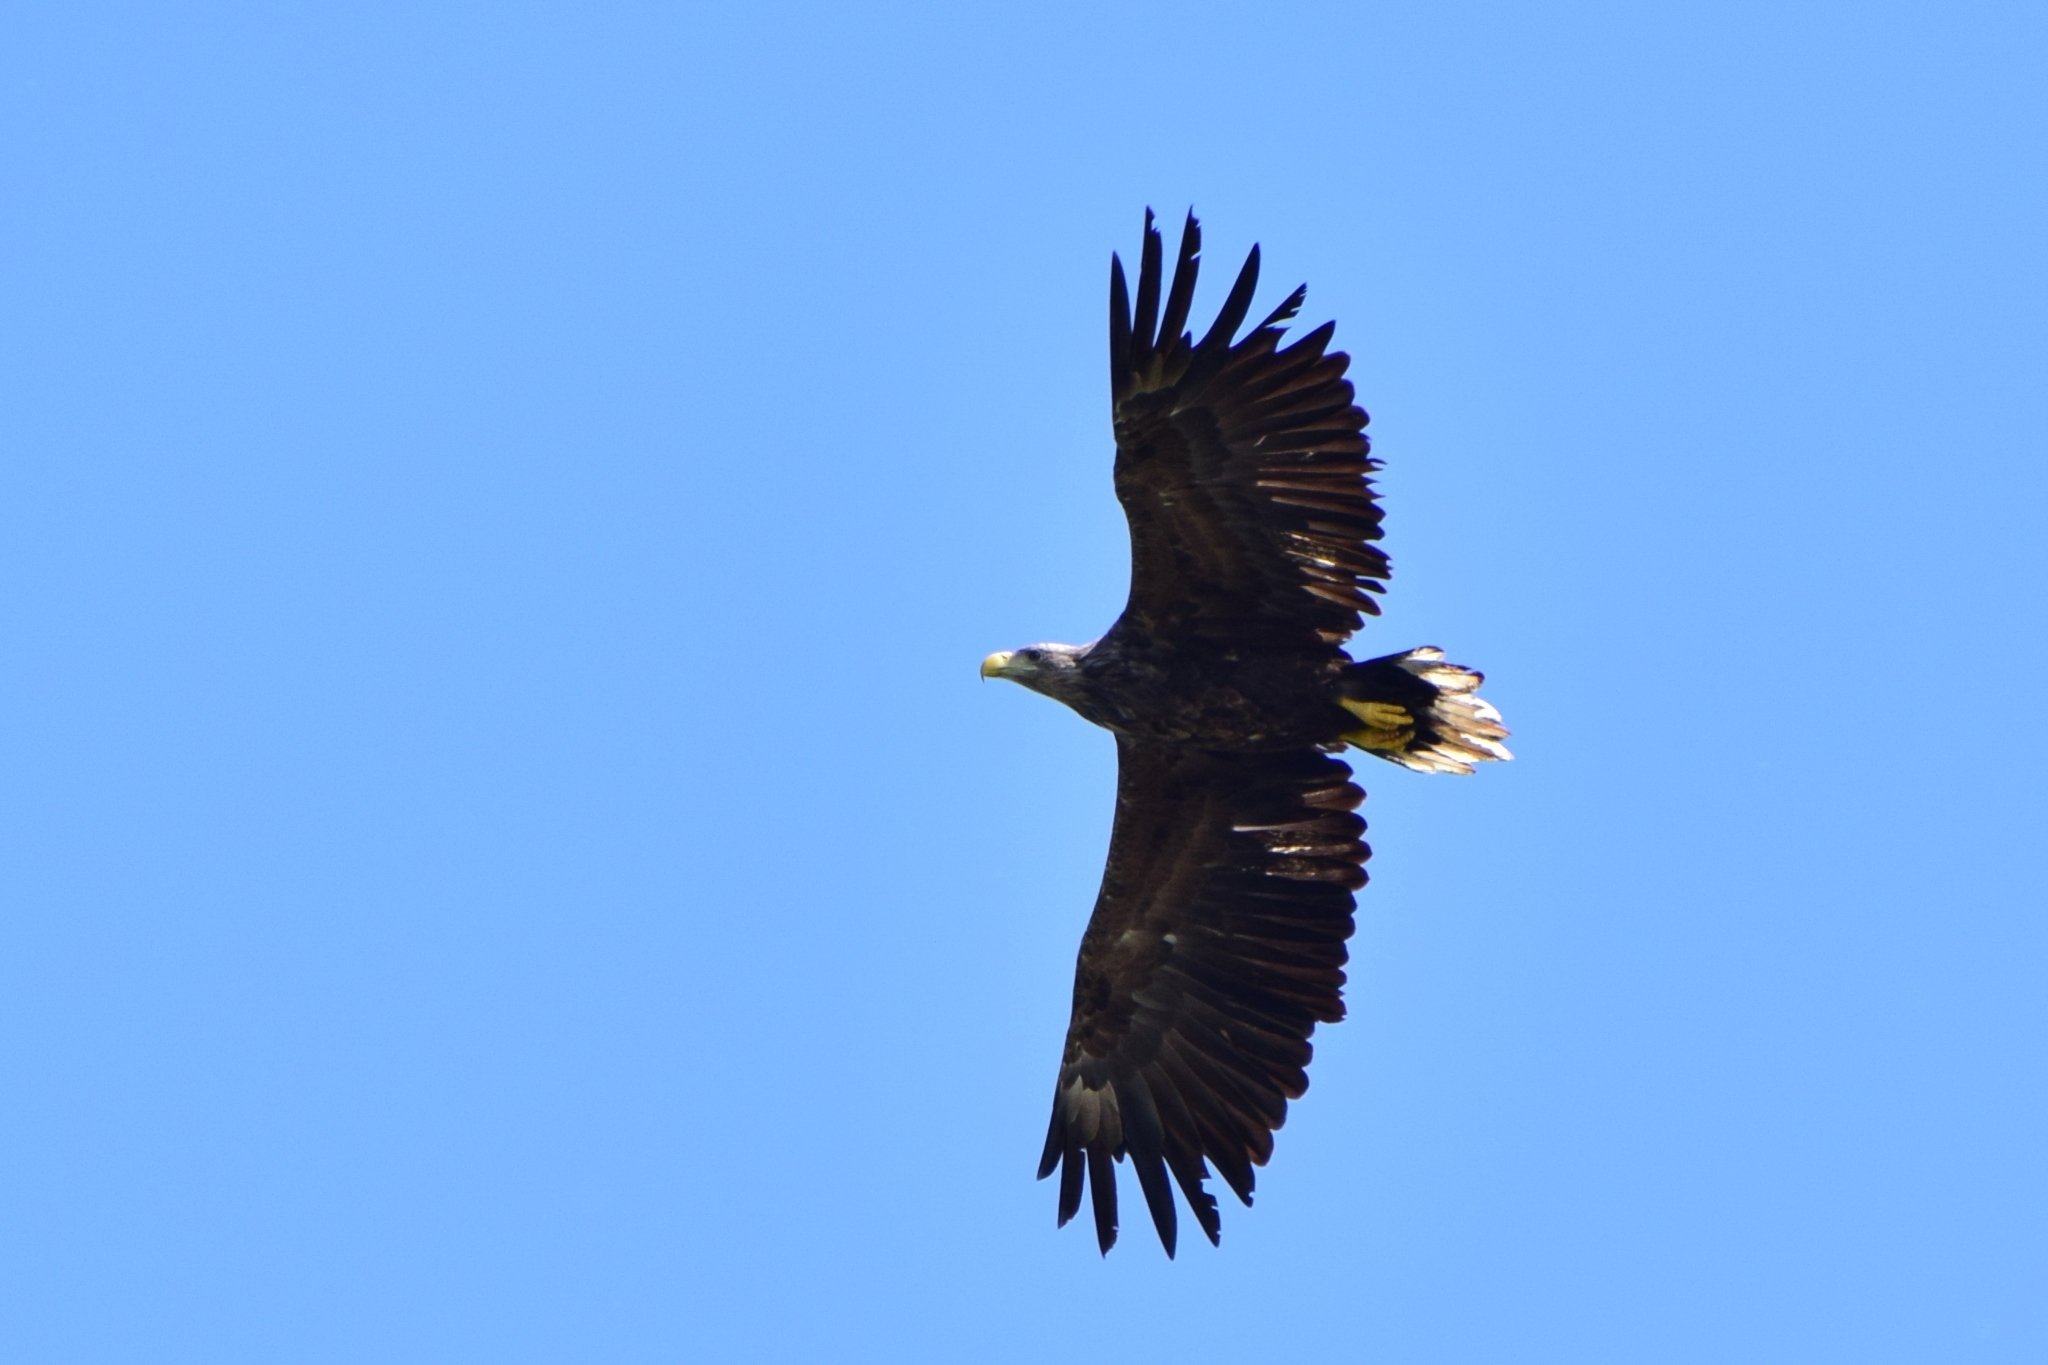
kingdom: Animalia
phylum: Chordata
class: Aves
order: Accipitriformes
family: Accipitridae
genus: Haliaeetus
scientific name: Haliaeetus albicilla
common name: White-tailed eagle
